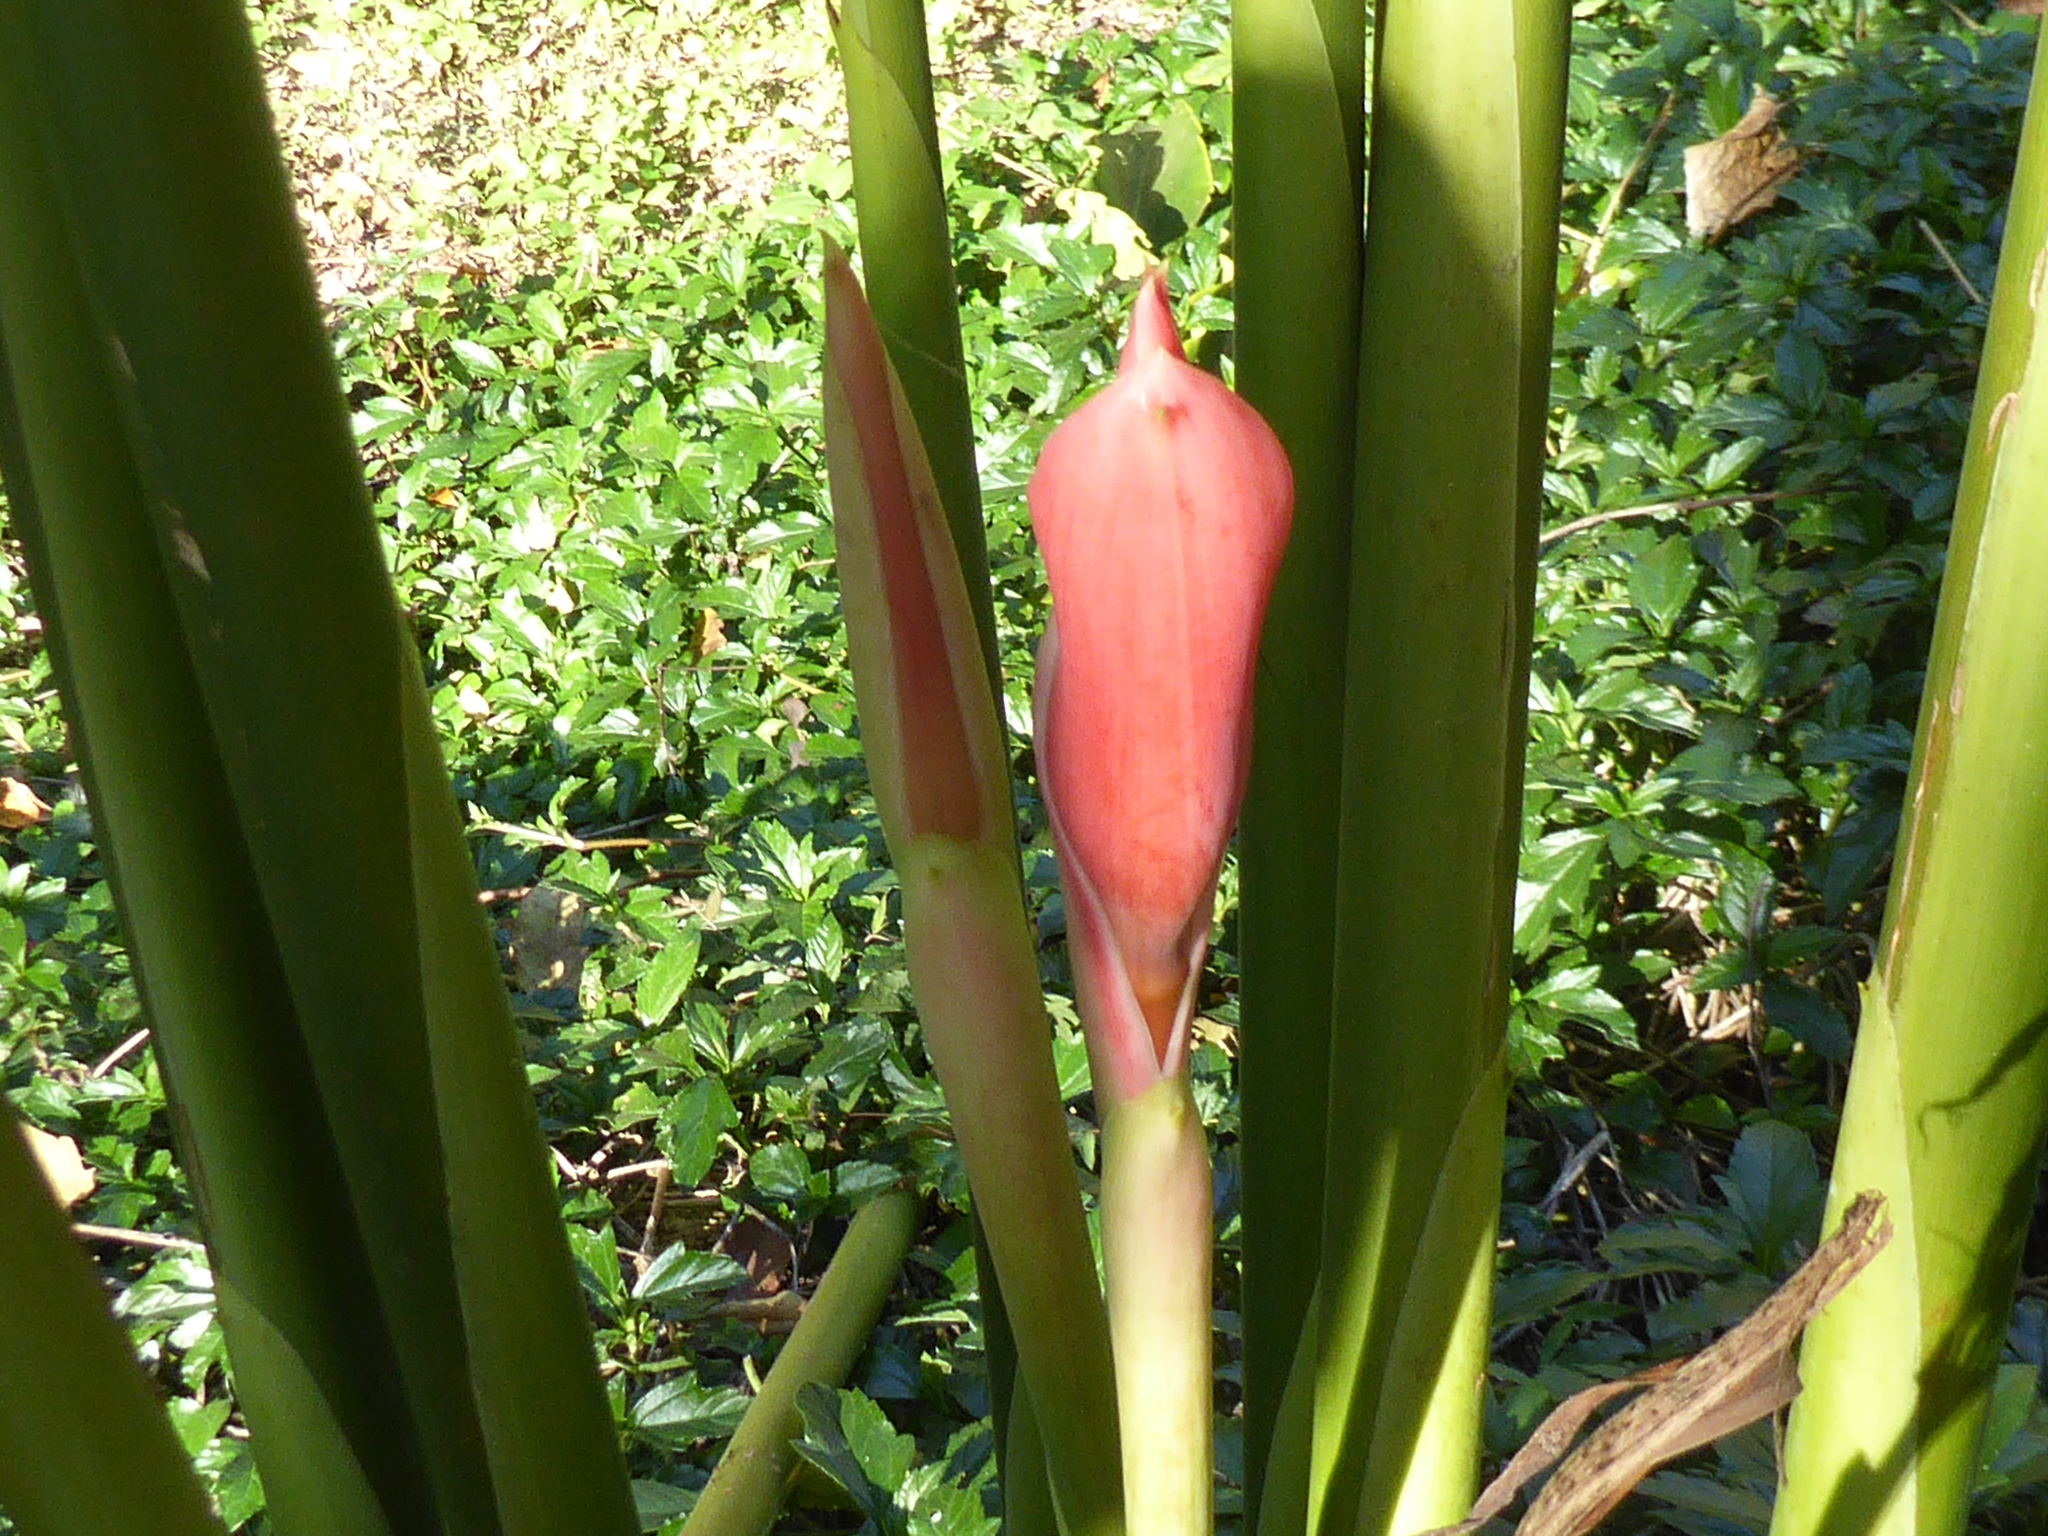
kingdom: Plantae
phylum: Tracheophyta
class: Liliopsida
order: Zingiberales
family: Zingiberaceae
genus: Etlingera
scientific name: Etlingera elatior
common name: Philippine waxflower
